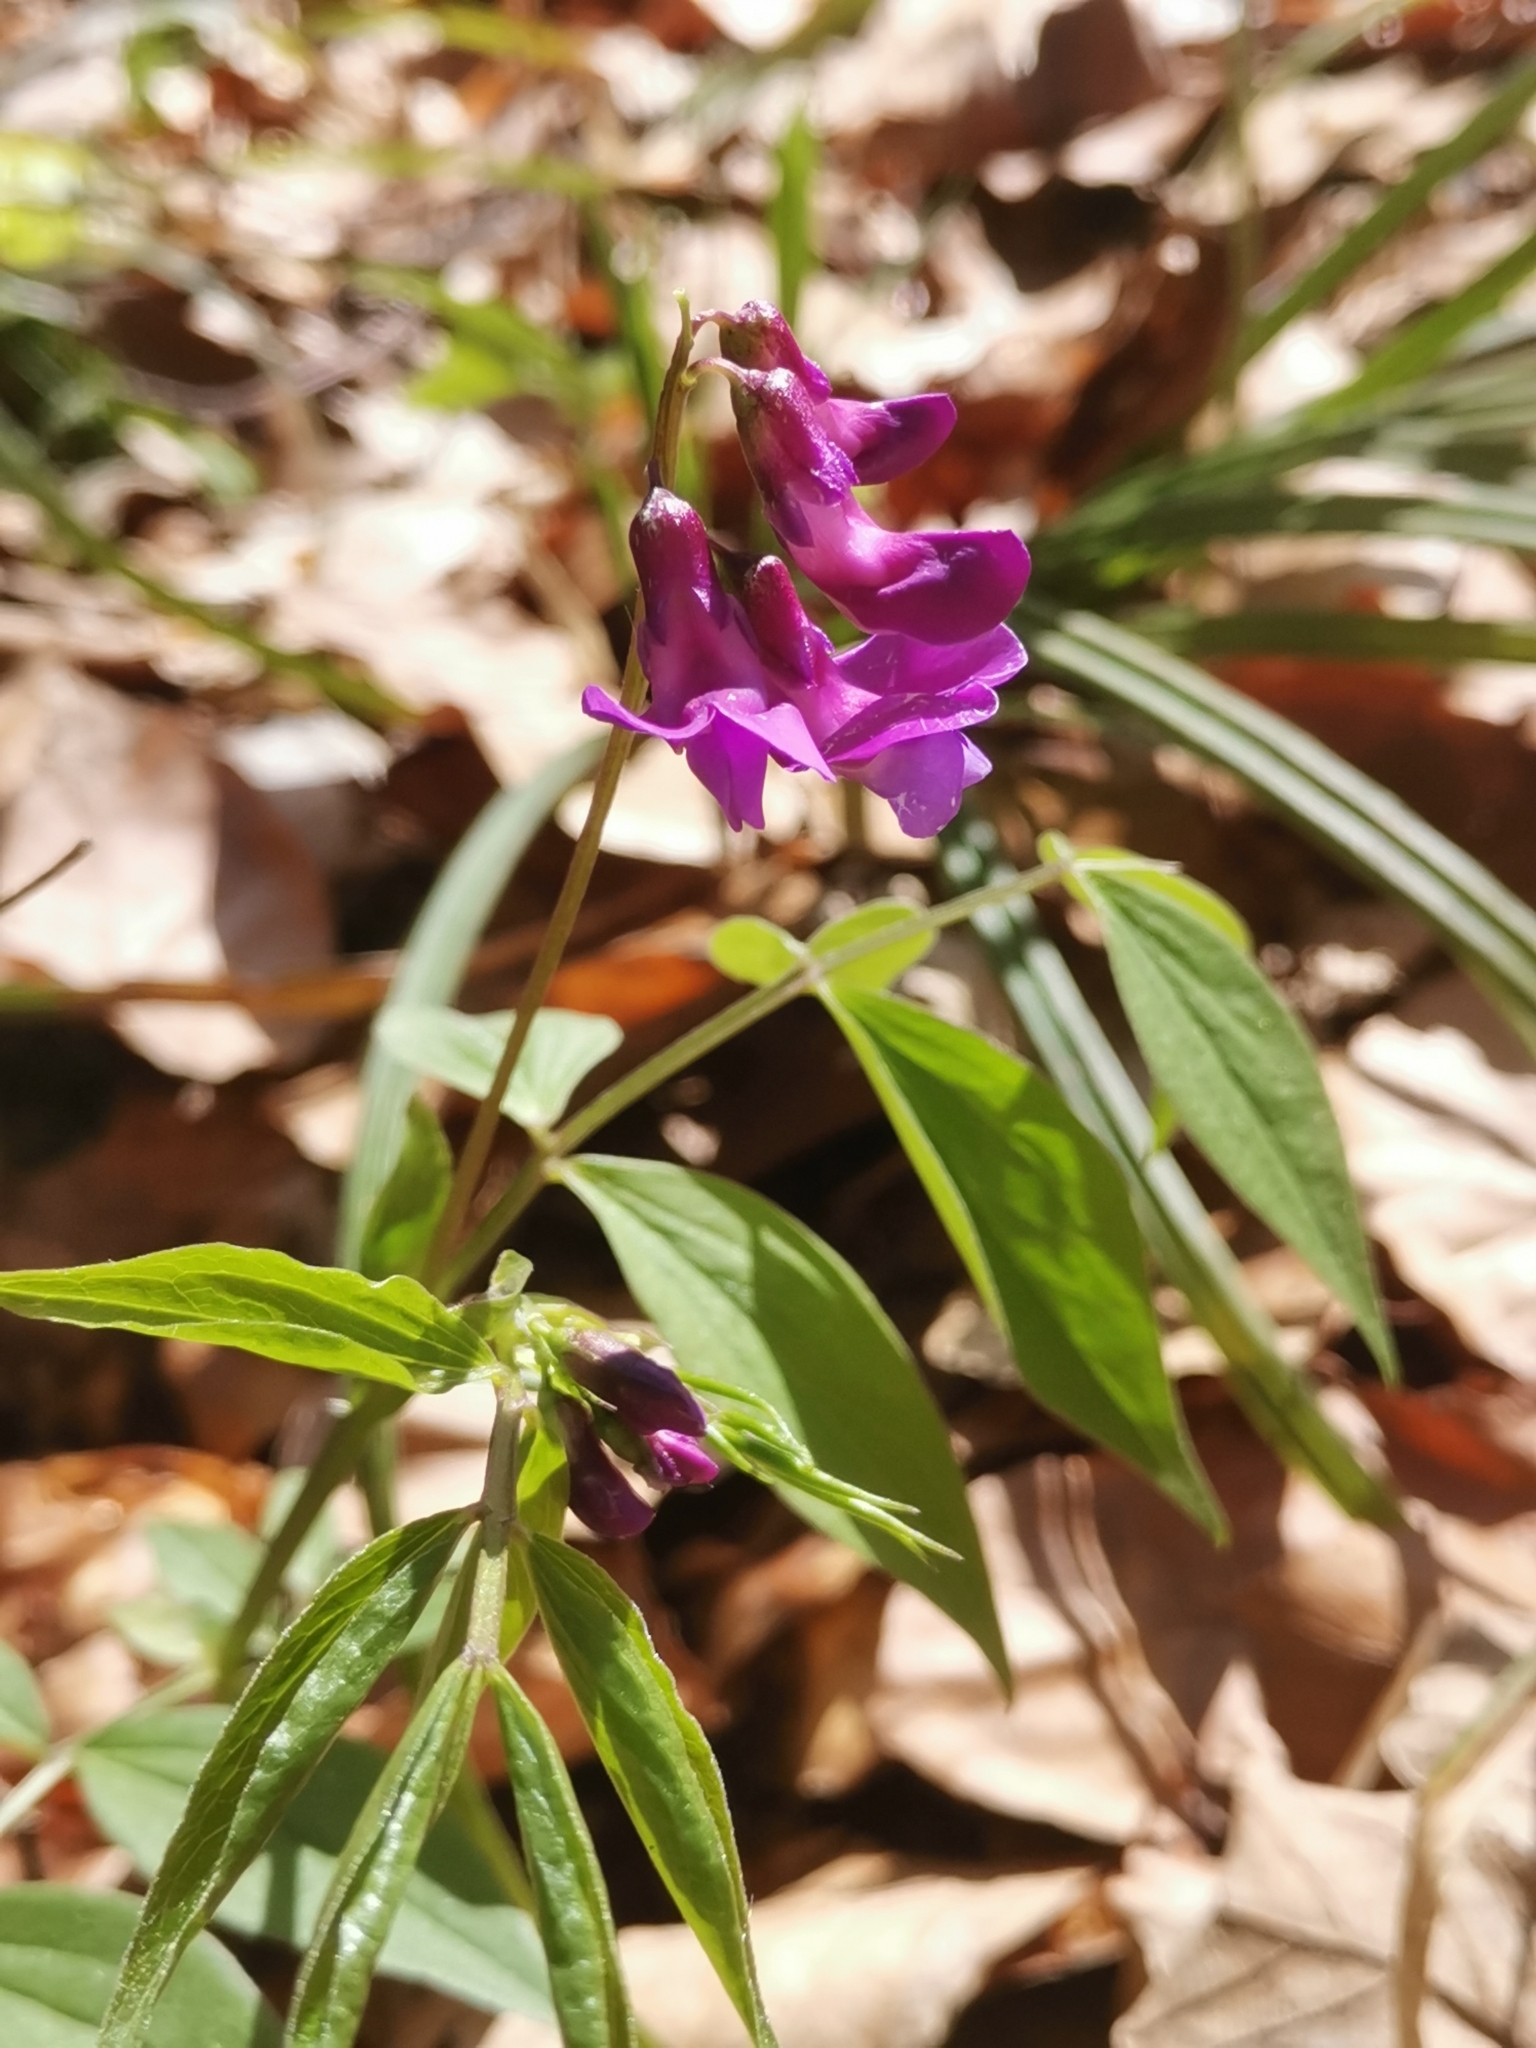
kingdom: Plantae
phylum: Tracheophyta
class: Magnoliopsida
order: Fabales
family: Fabaceae
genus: Lathyrus
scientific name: Lathyrus vernus
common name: Spring pea
